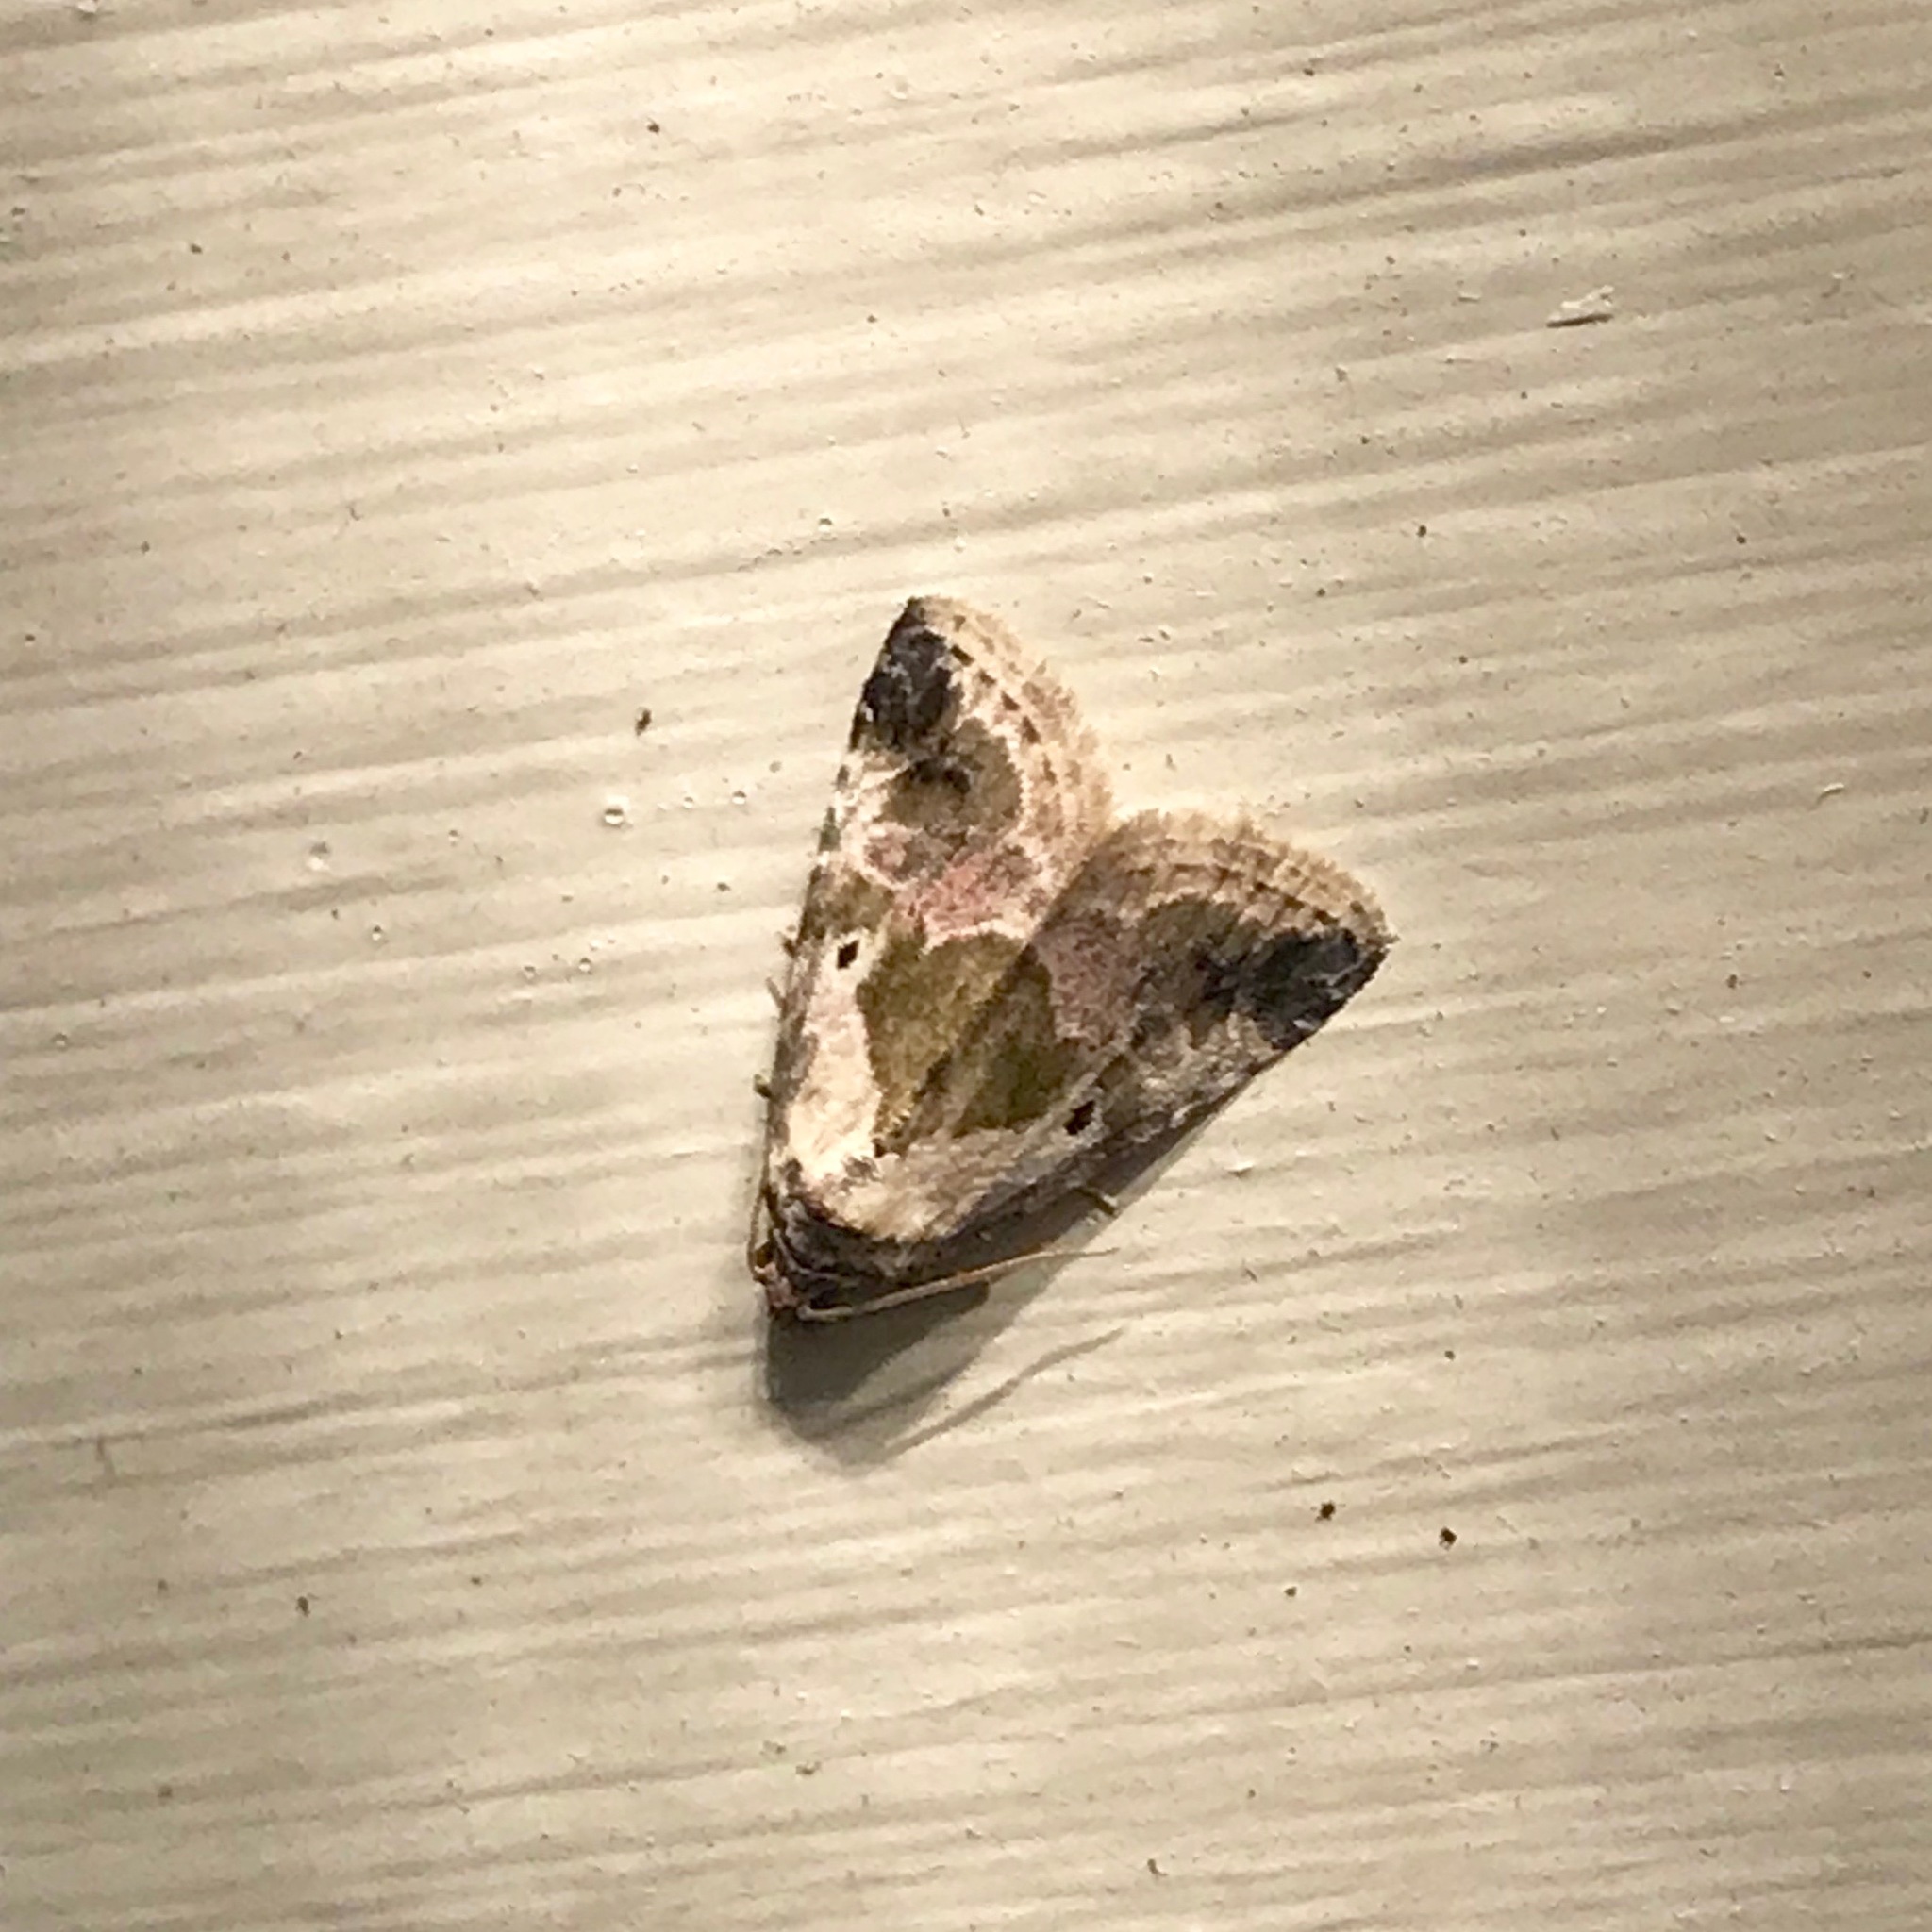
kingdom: Animalia
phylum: Arthropoda
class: Insecta
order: Lepidoptera
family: Noctuidae
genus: Maliattha
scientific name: Maliattha synochitis
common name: Black-dotted glyph
